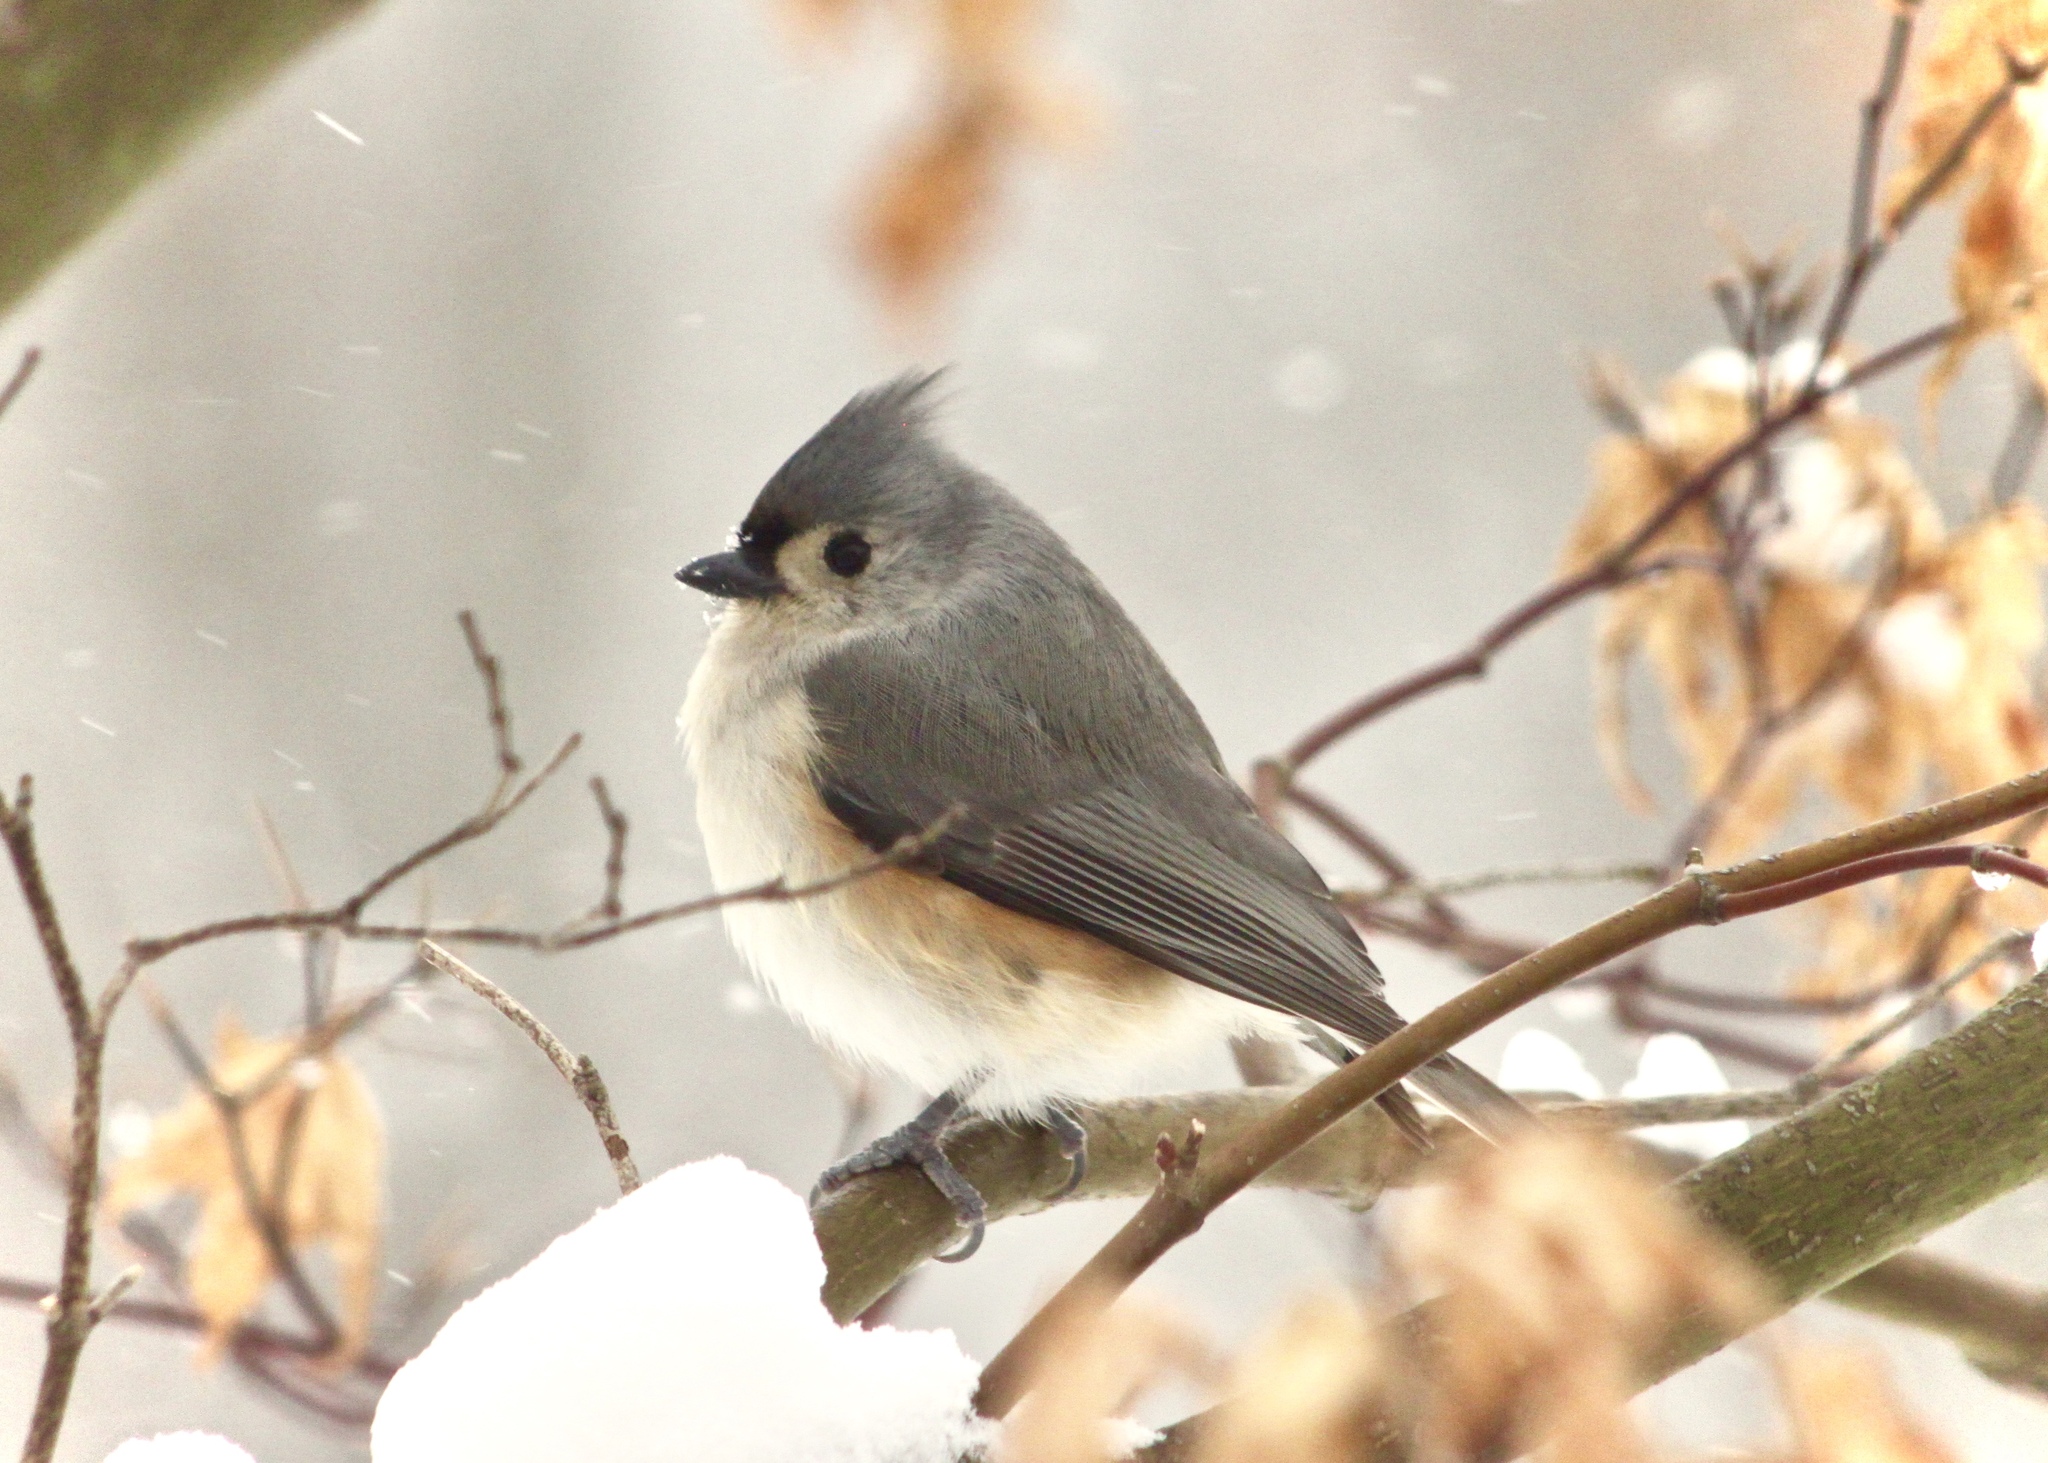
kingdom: Animalia
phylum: Chordata
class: Aves
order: Passeriformes
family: Paridae
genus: Baeolophus
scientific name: Baeolophus bicolor
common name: Tufted titmouse
